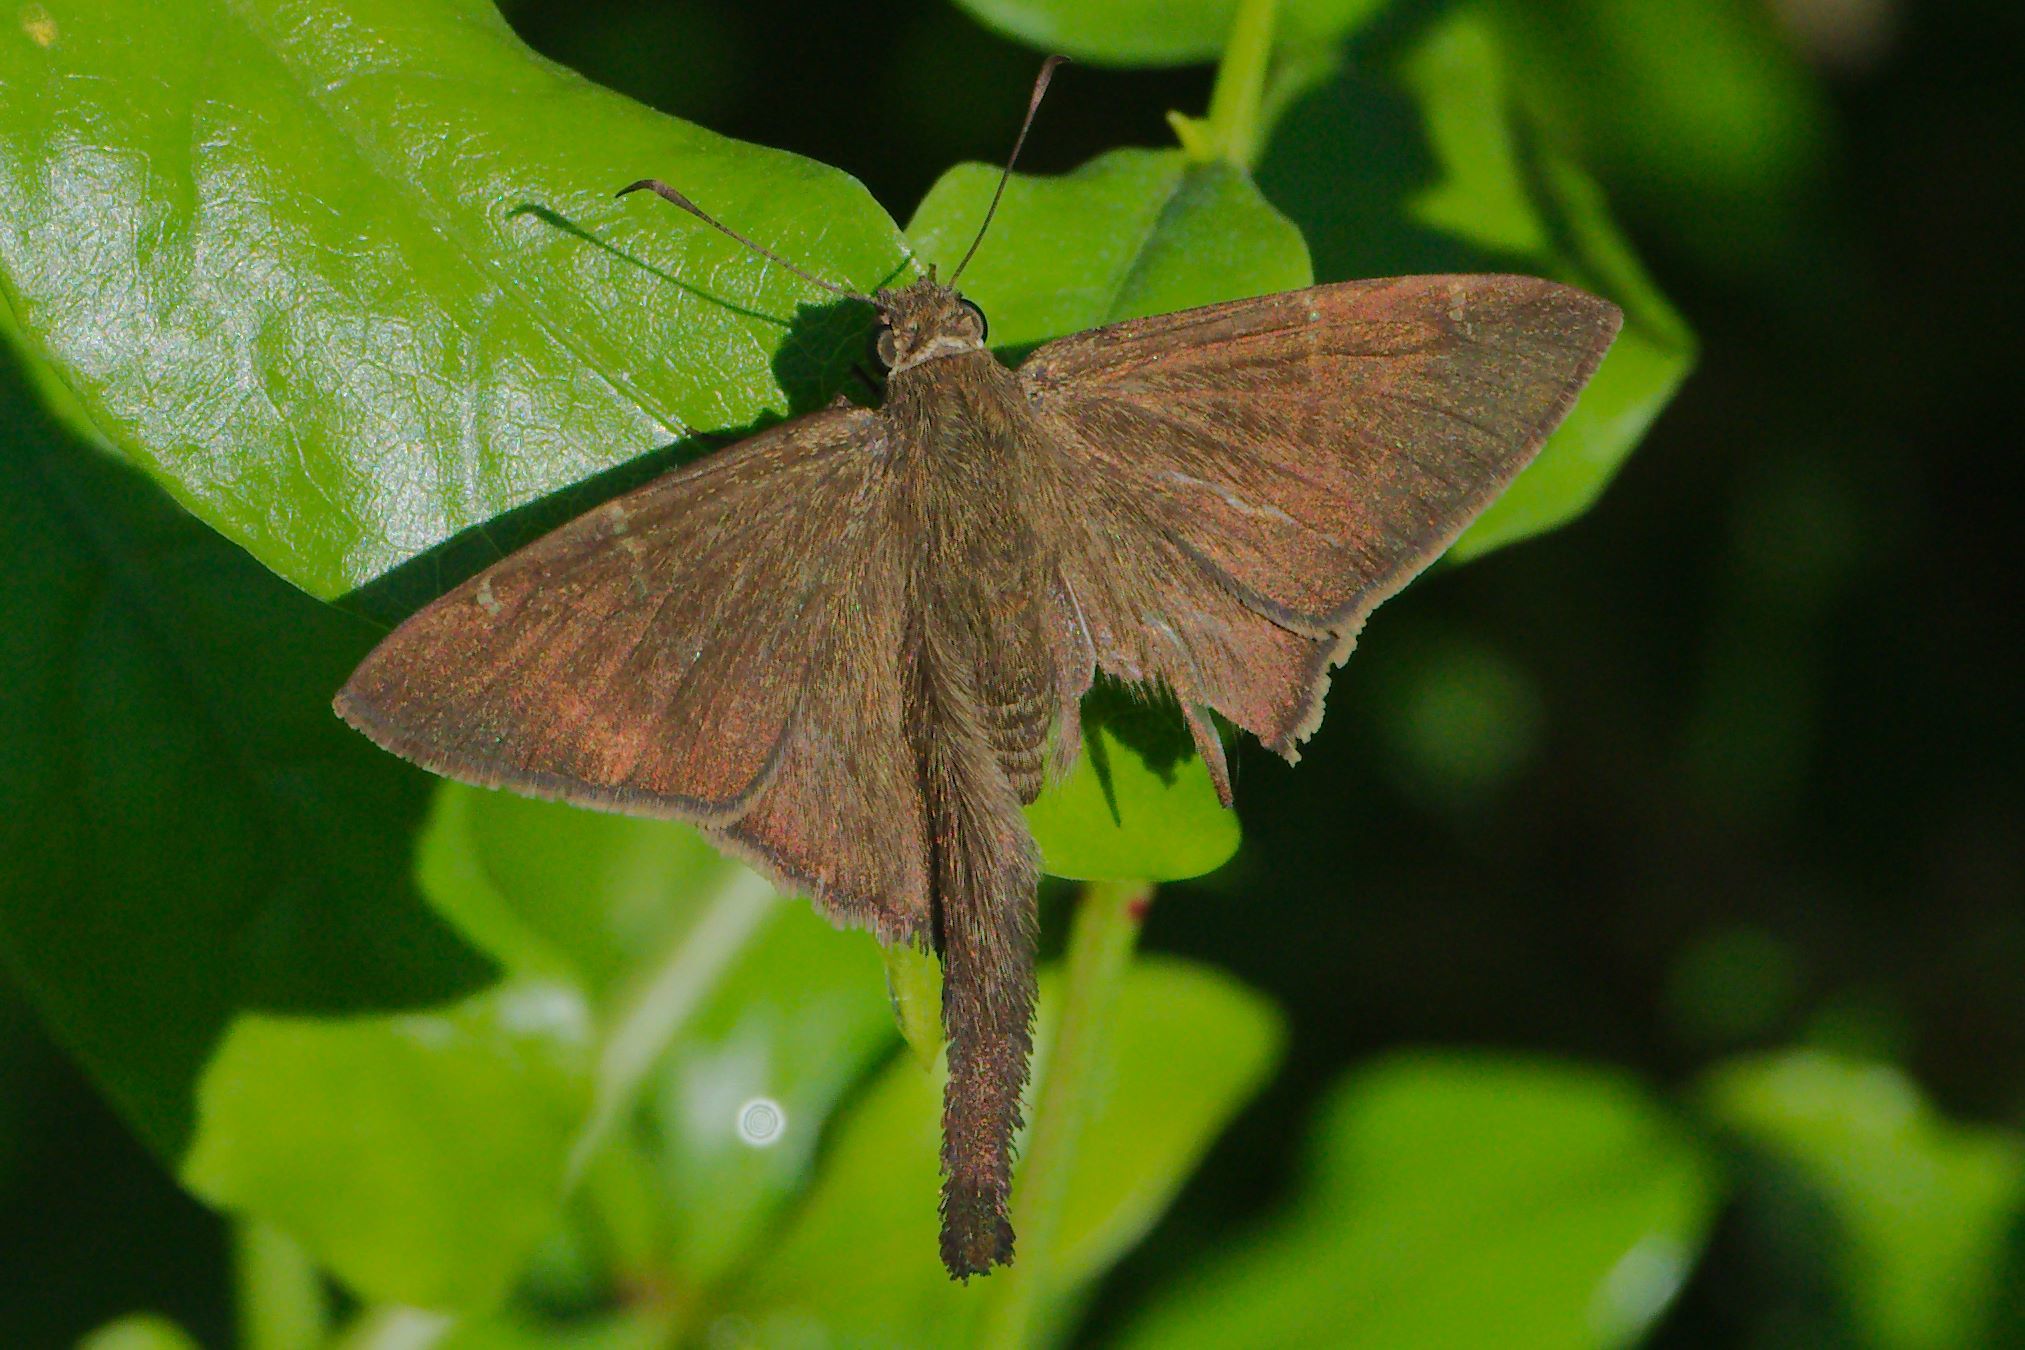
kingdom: Animalia
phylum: Arthropoda
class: Insecta
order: Lepidoptera
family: Hesperiidae
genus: Urbanus
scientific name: Urbanus procne
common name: Brown longtail
